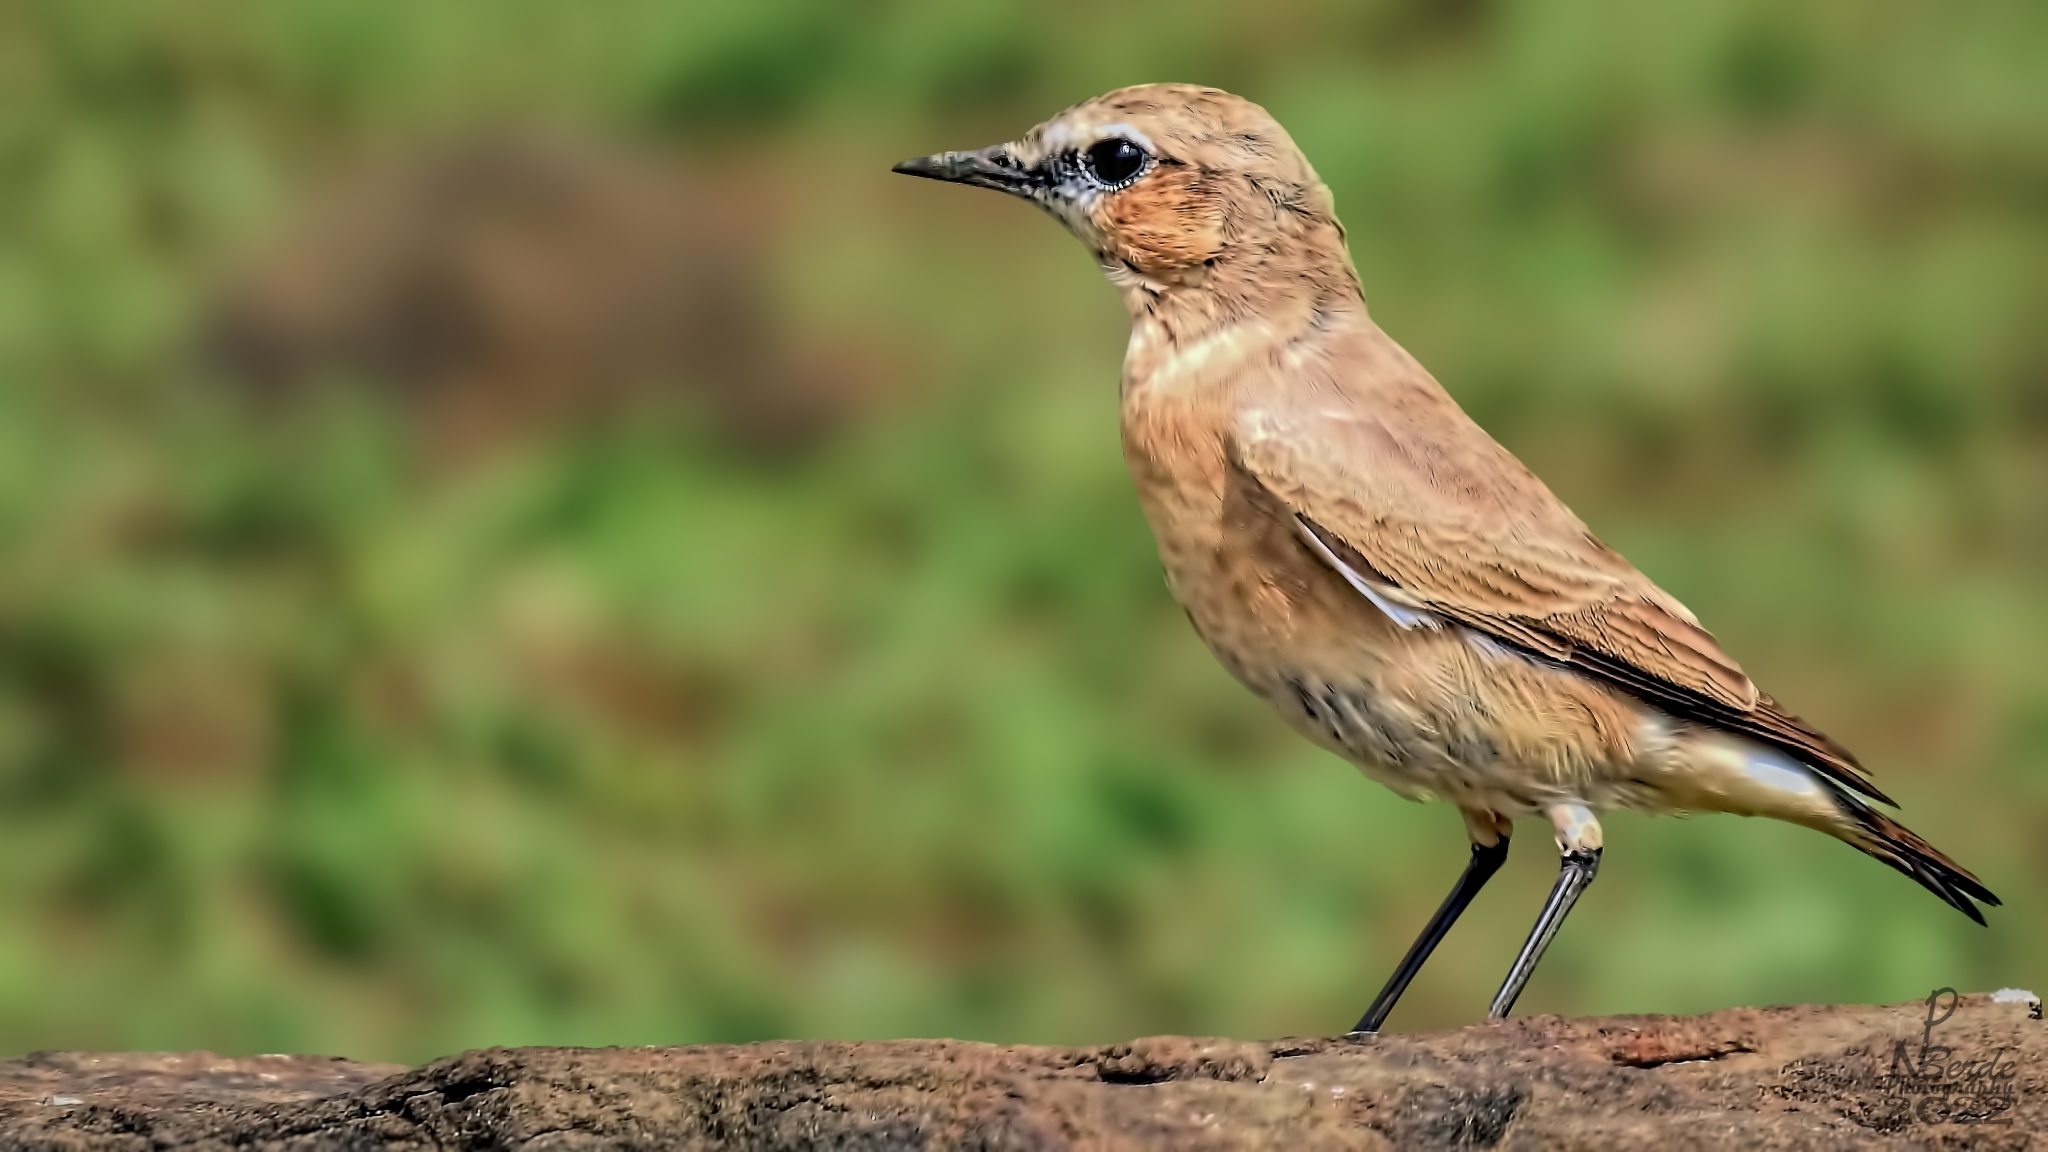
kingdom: Animalia
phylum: Chordata
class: Aves
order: Passeriformes
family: Muscicapidae
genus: Oenanthe
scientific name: Oenanthe deserti
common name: Desert wheatear
